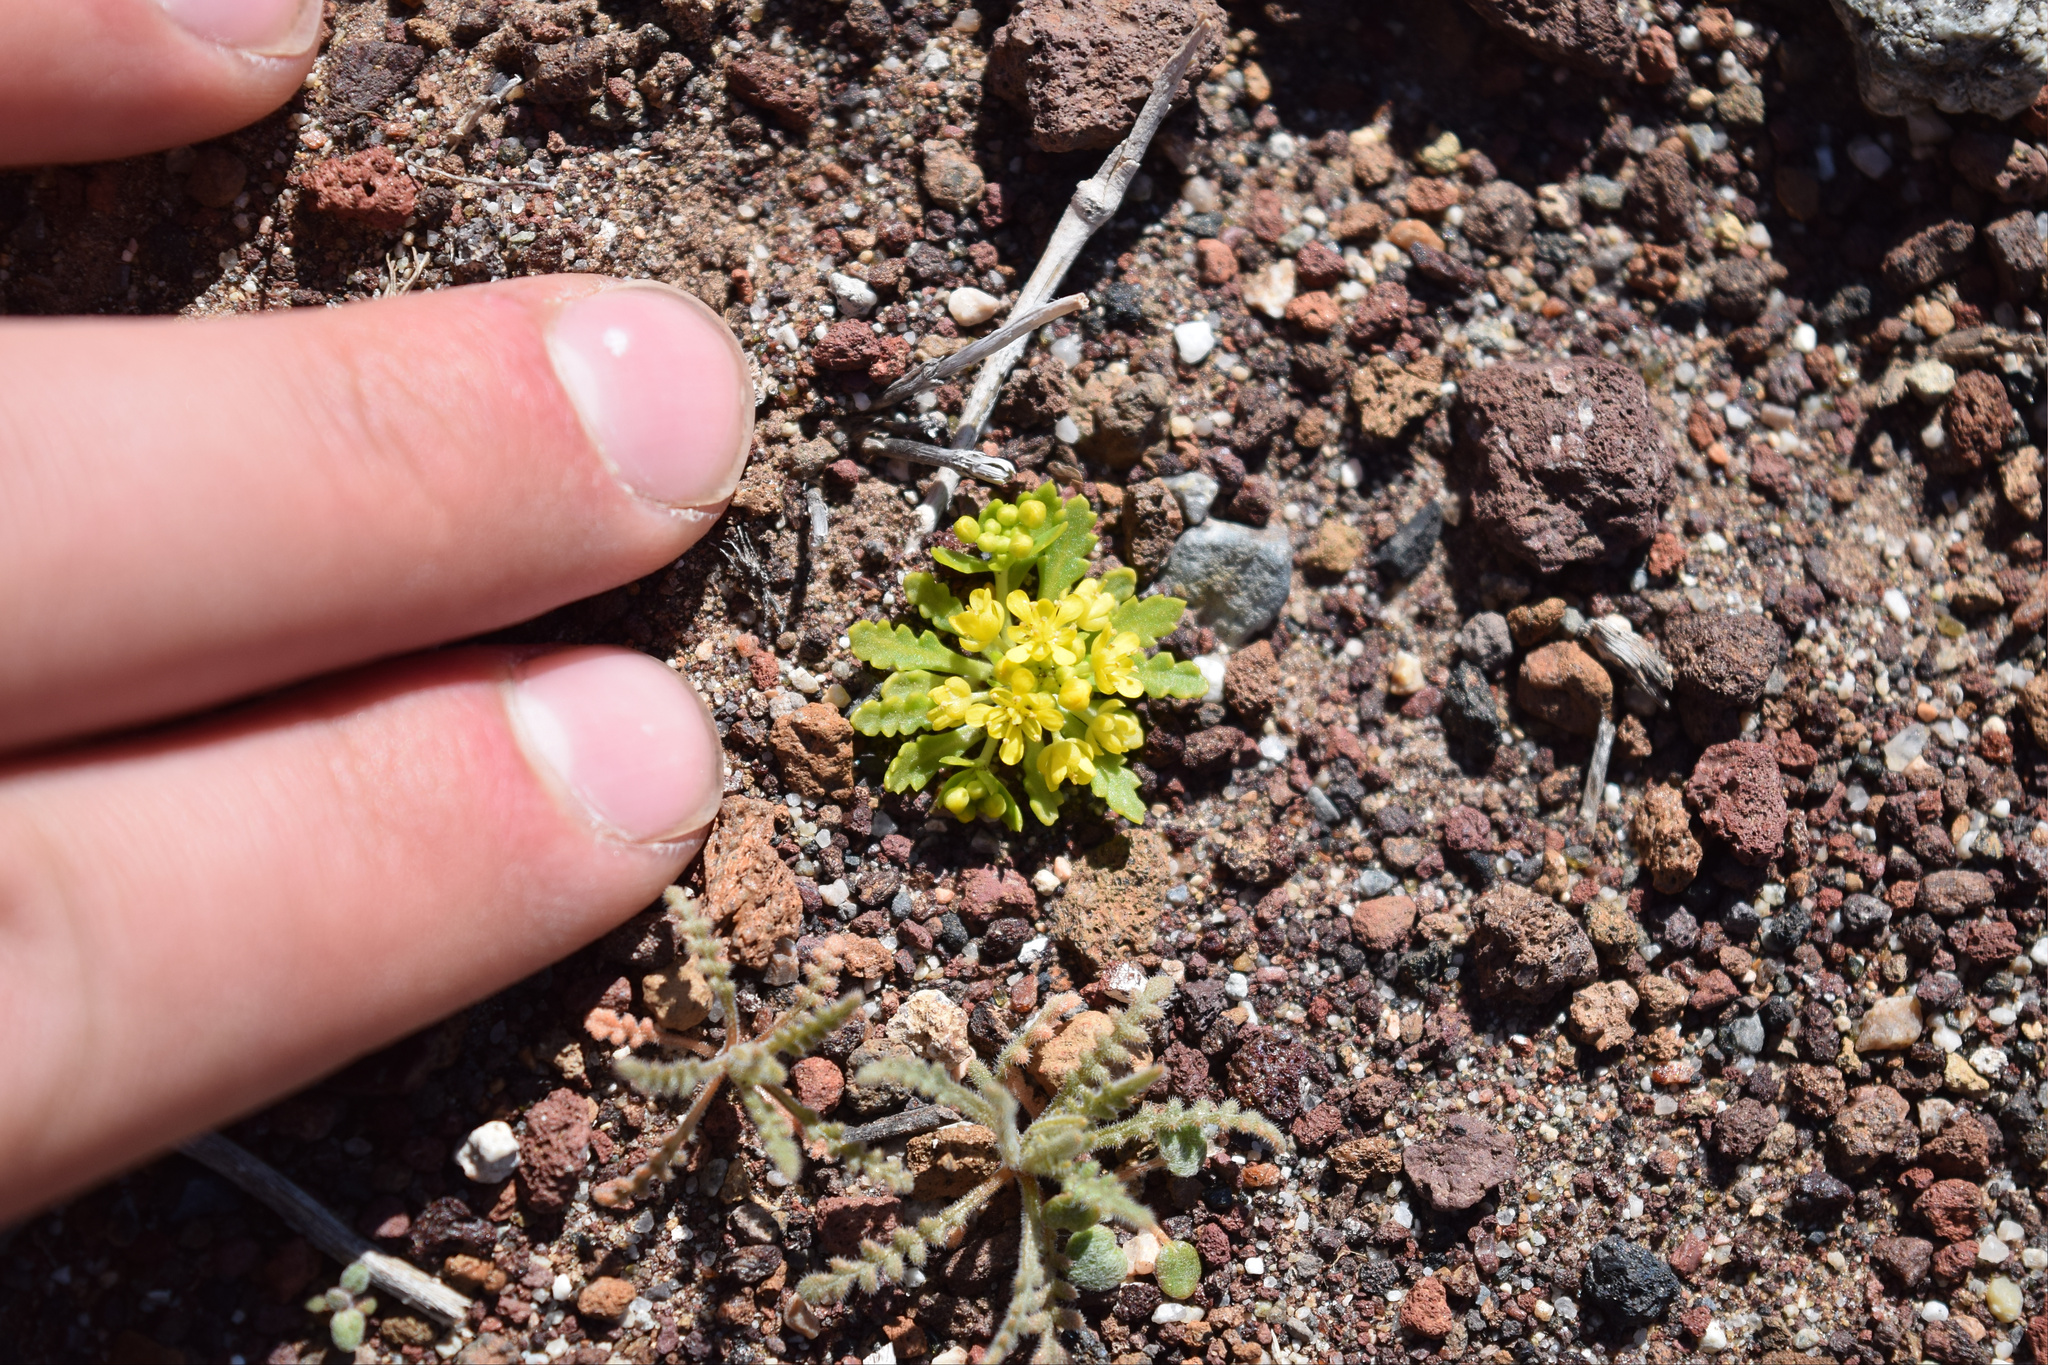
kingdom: Plantae
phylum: Tracheophyta
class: Magnoliopsida
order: Brassicales
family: Brassicaceae
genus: Lepidium
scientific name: Lepidium flavum
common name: Yellow pepperwort
